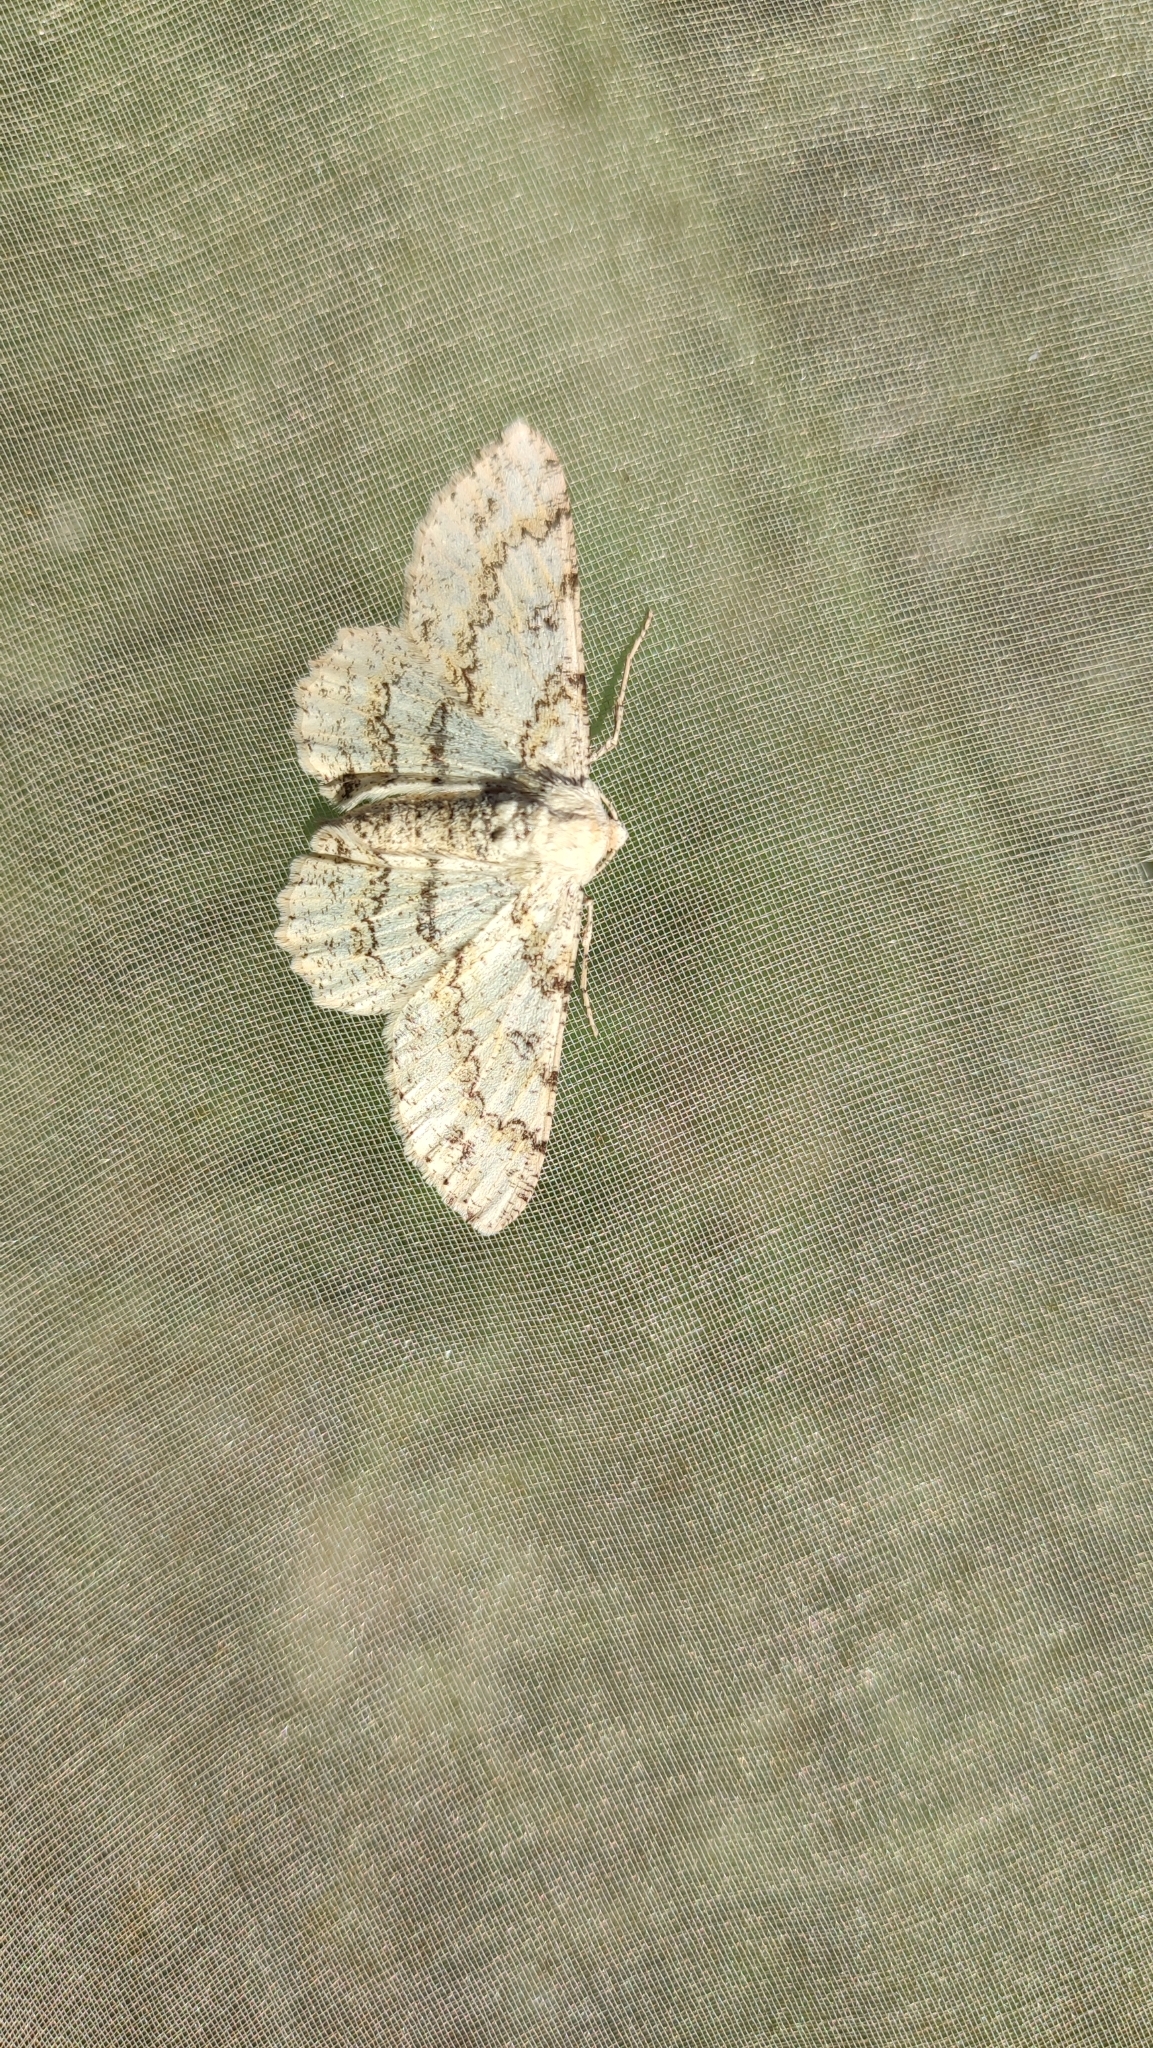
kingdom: Animalia
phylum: Arthropoda
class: Insecta
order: Lepidoptera
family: Geometridae
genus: Ascotis
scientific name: Ascotis selenaria
